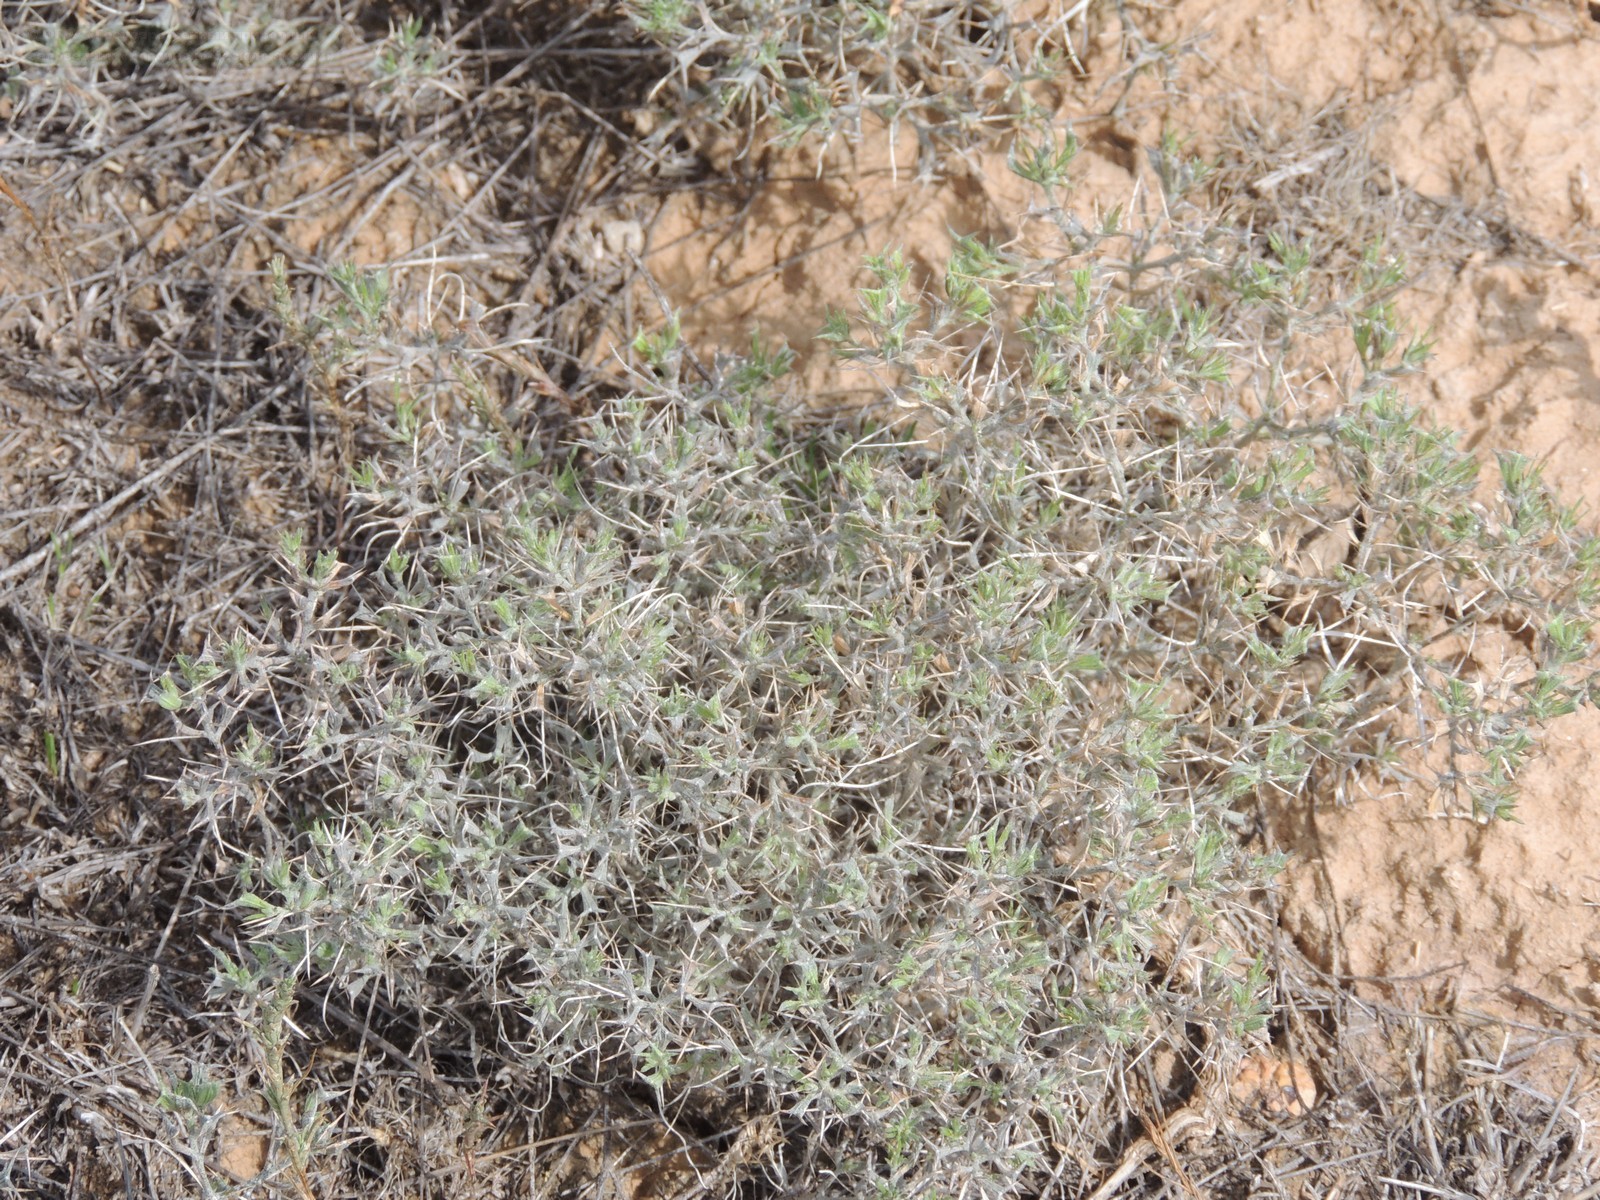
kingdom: Plantae
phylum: Tracheophyta
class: Magnoliopsida
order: Caryophyllales
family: Amaranthaceae
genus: Ceratocarpus
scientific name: Ceratocarpus arenarius
